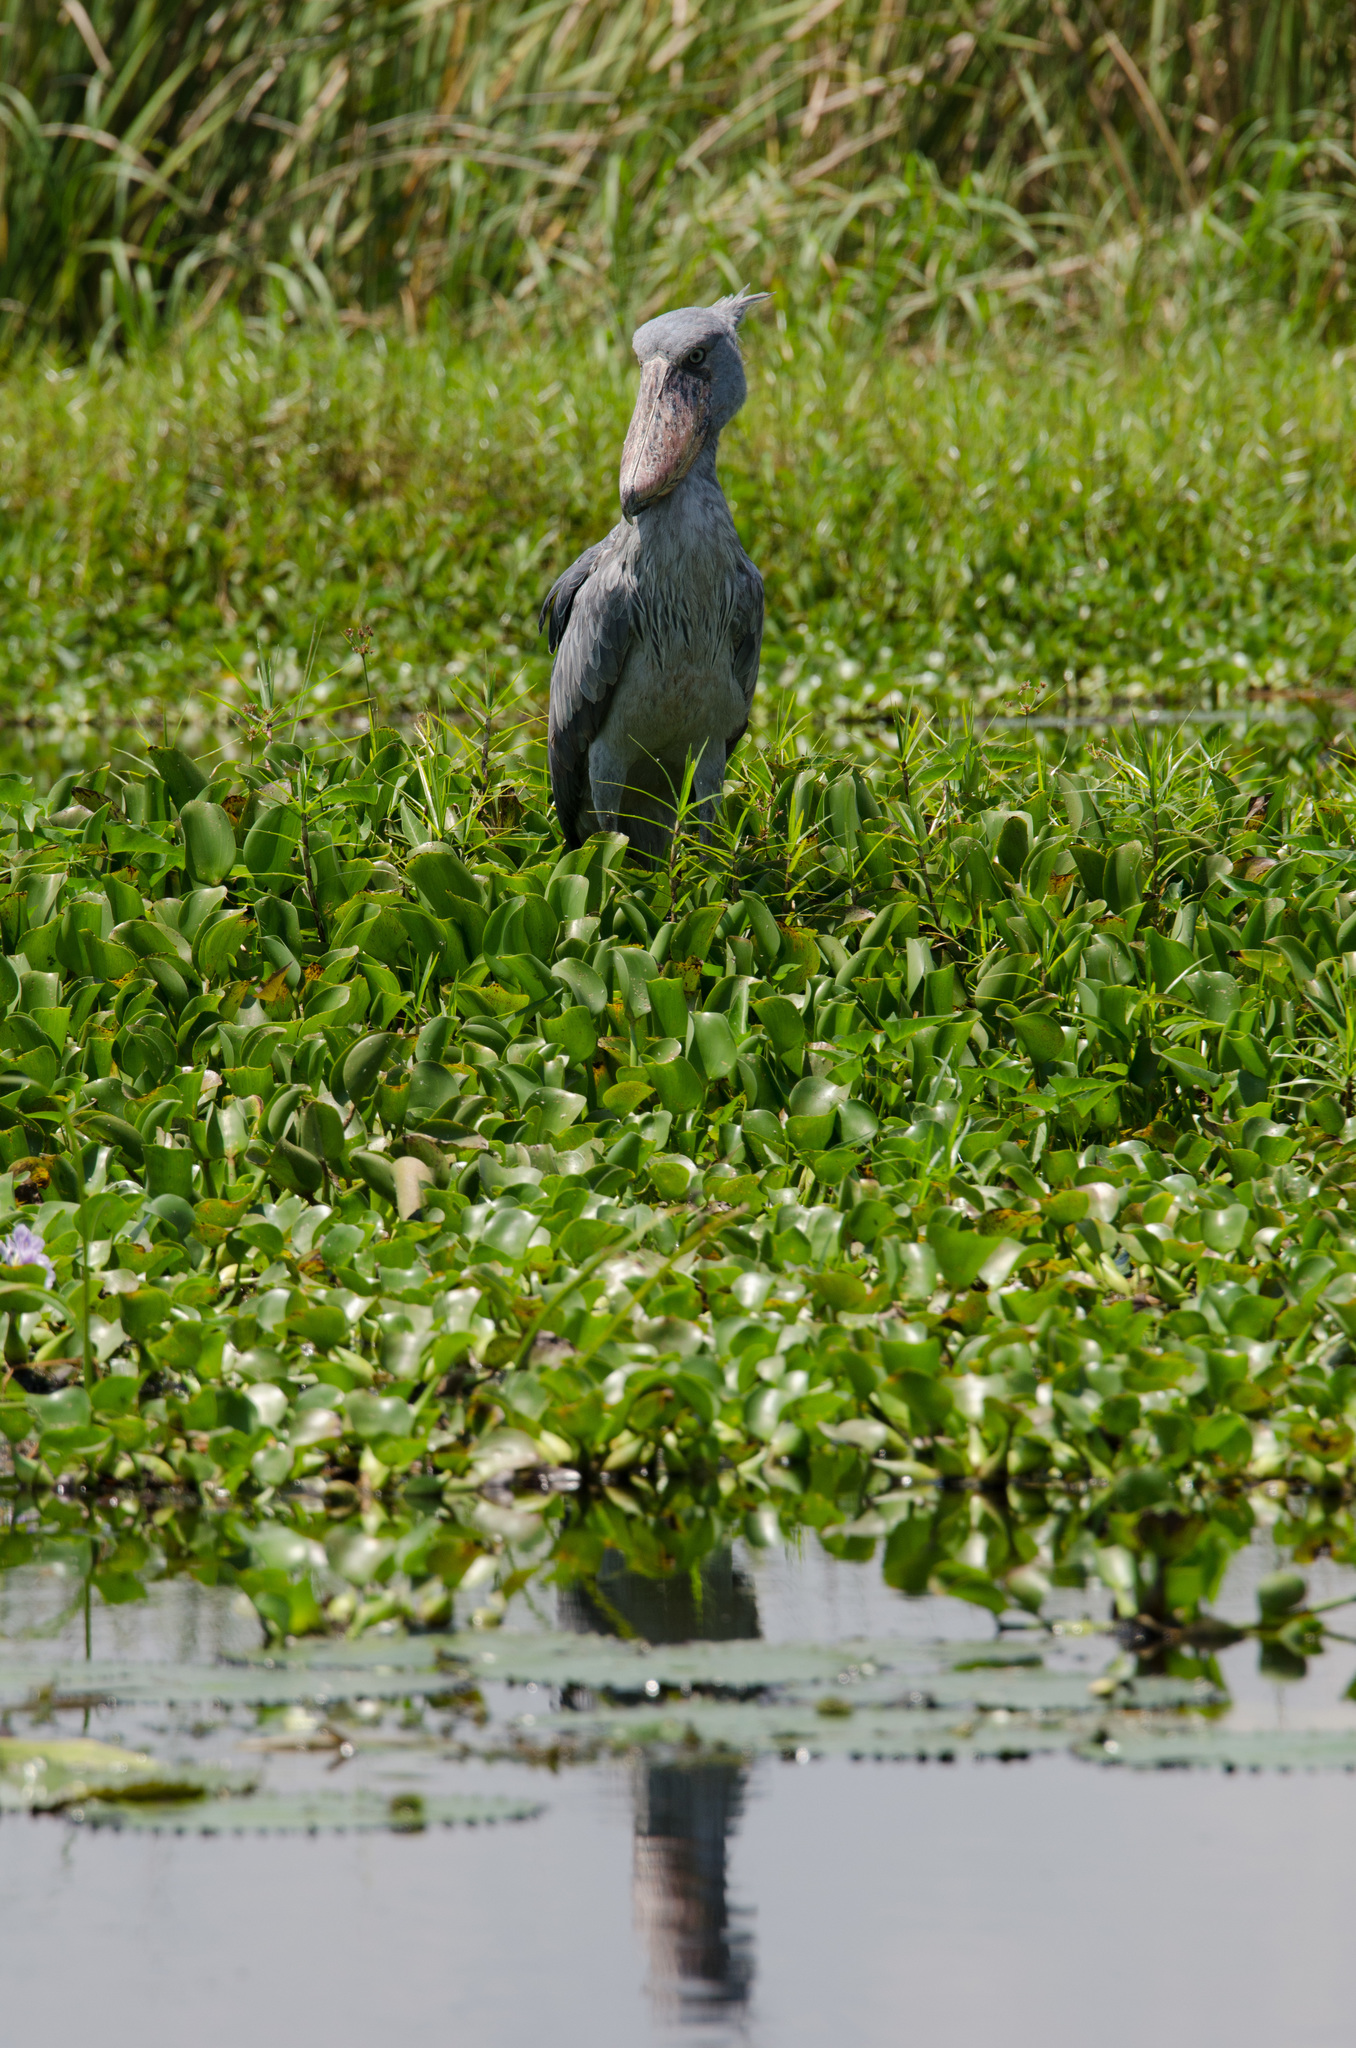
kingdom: Animalia
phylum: Chordata
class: Aves
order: Pelecaniformes
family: Balaenicipitidae
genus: Balaeniceps
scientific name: Balaeniceps rex
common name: Shoebill
